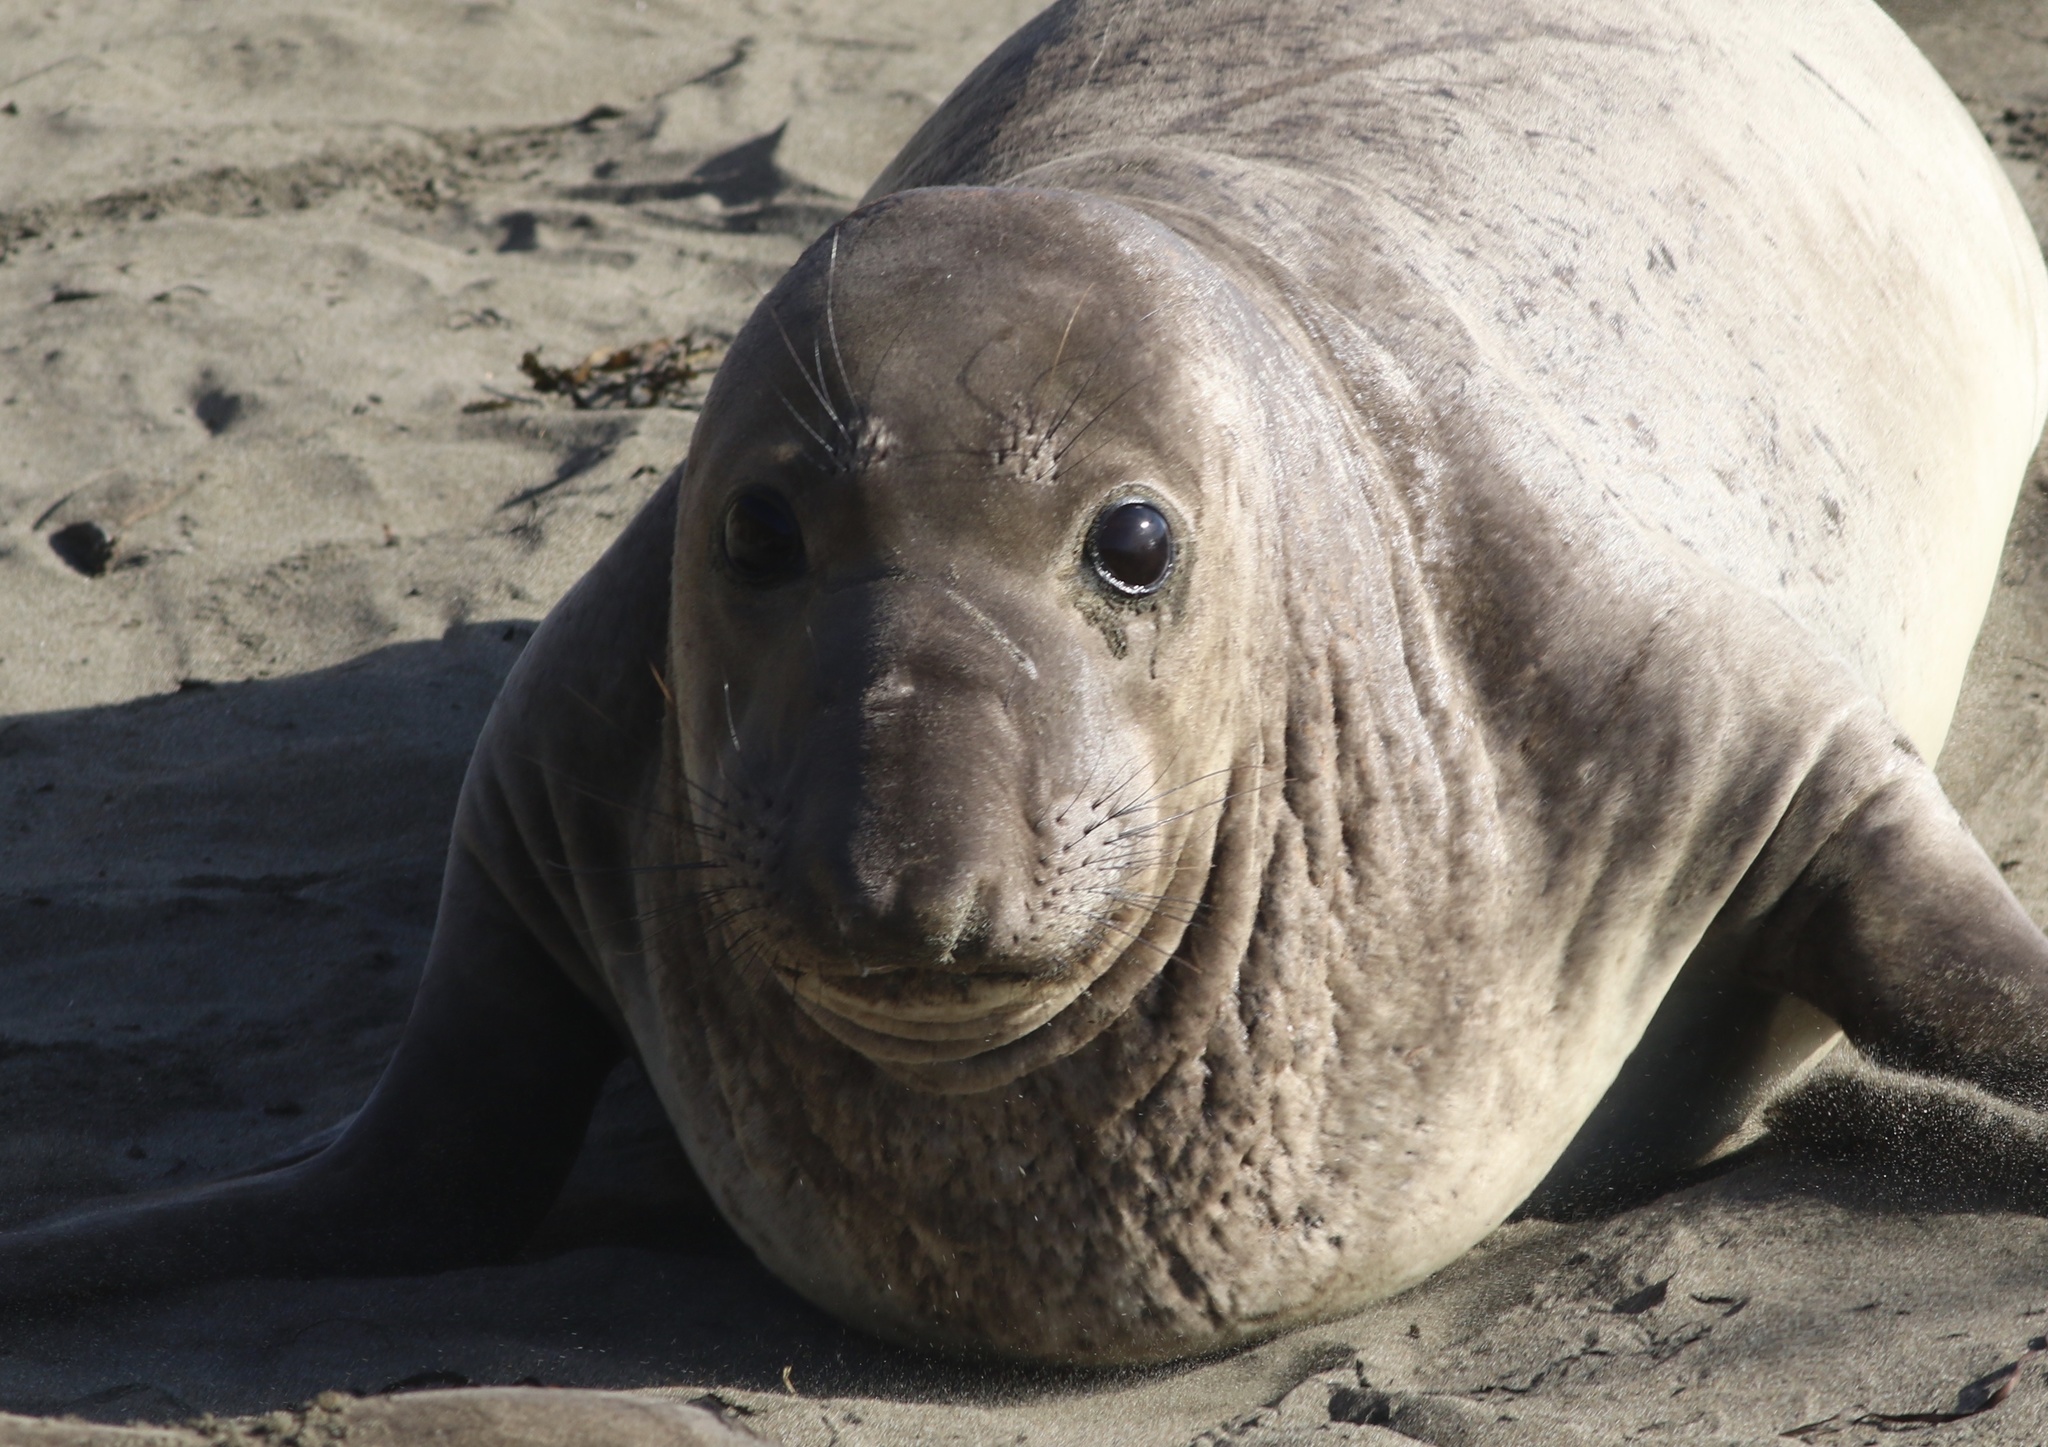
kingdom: Animalia
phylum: Chordata
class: Mammalia
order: Carnivora
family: Phocidae
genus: Mirounga
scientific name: Mirounga angustirostris
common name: Northern elephant seal
